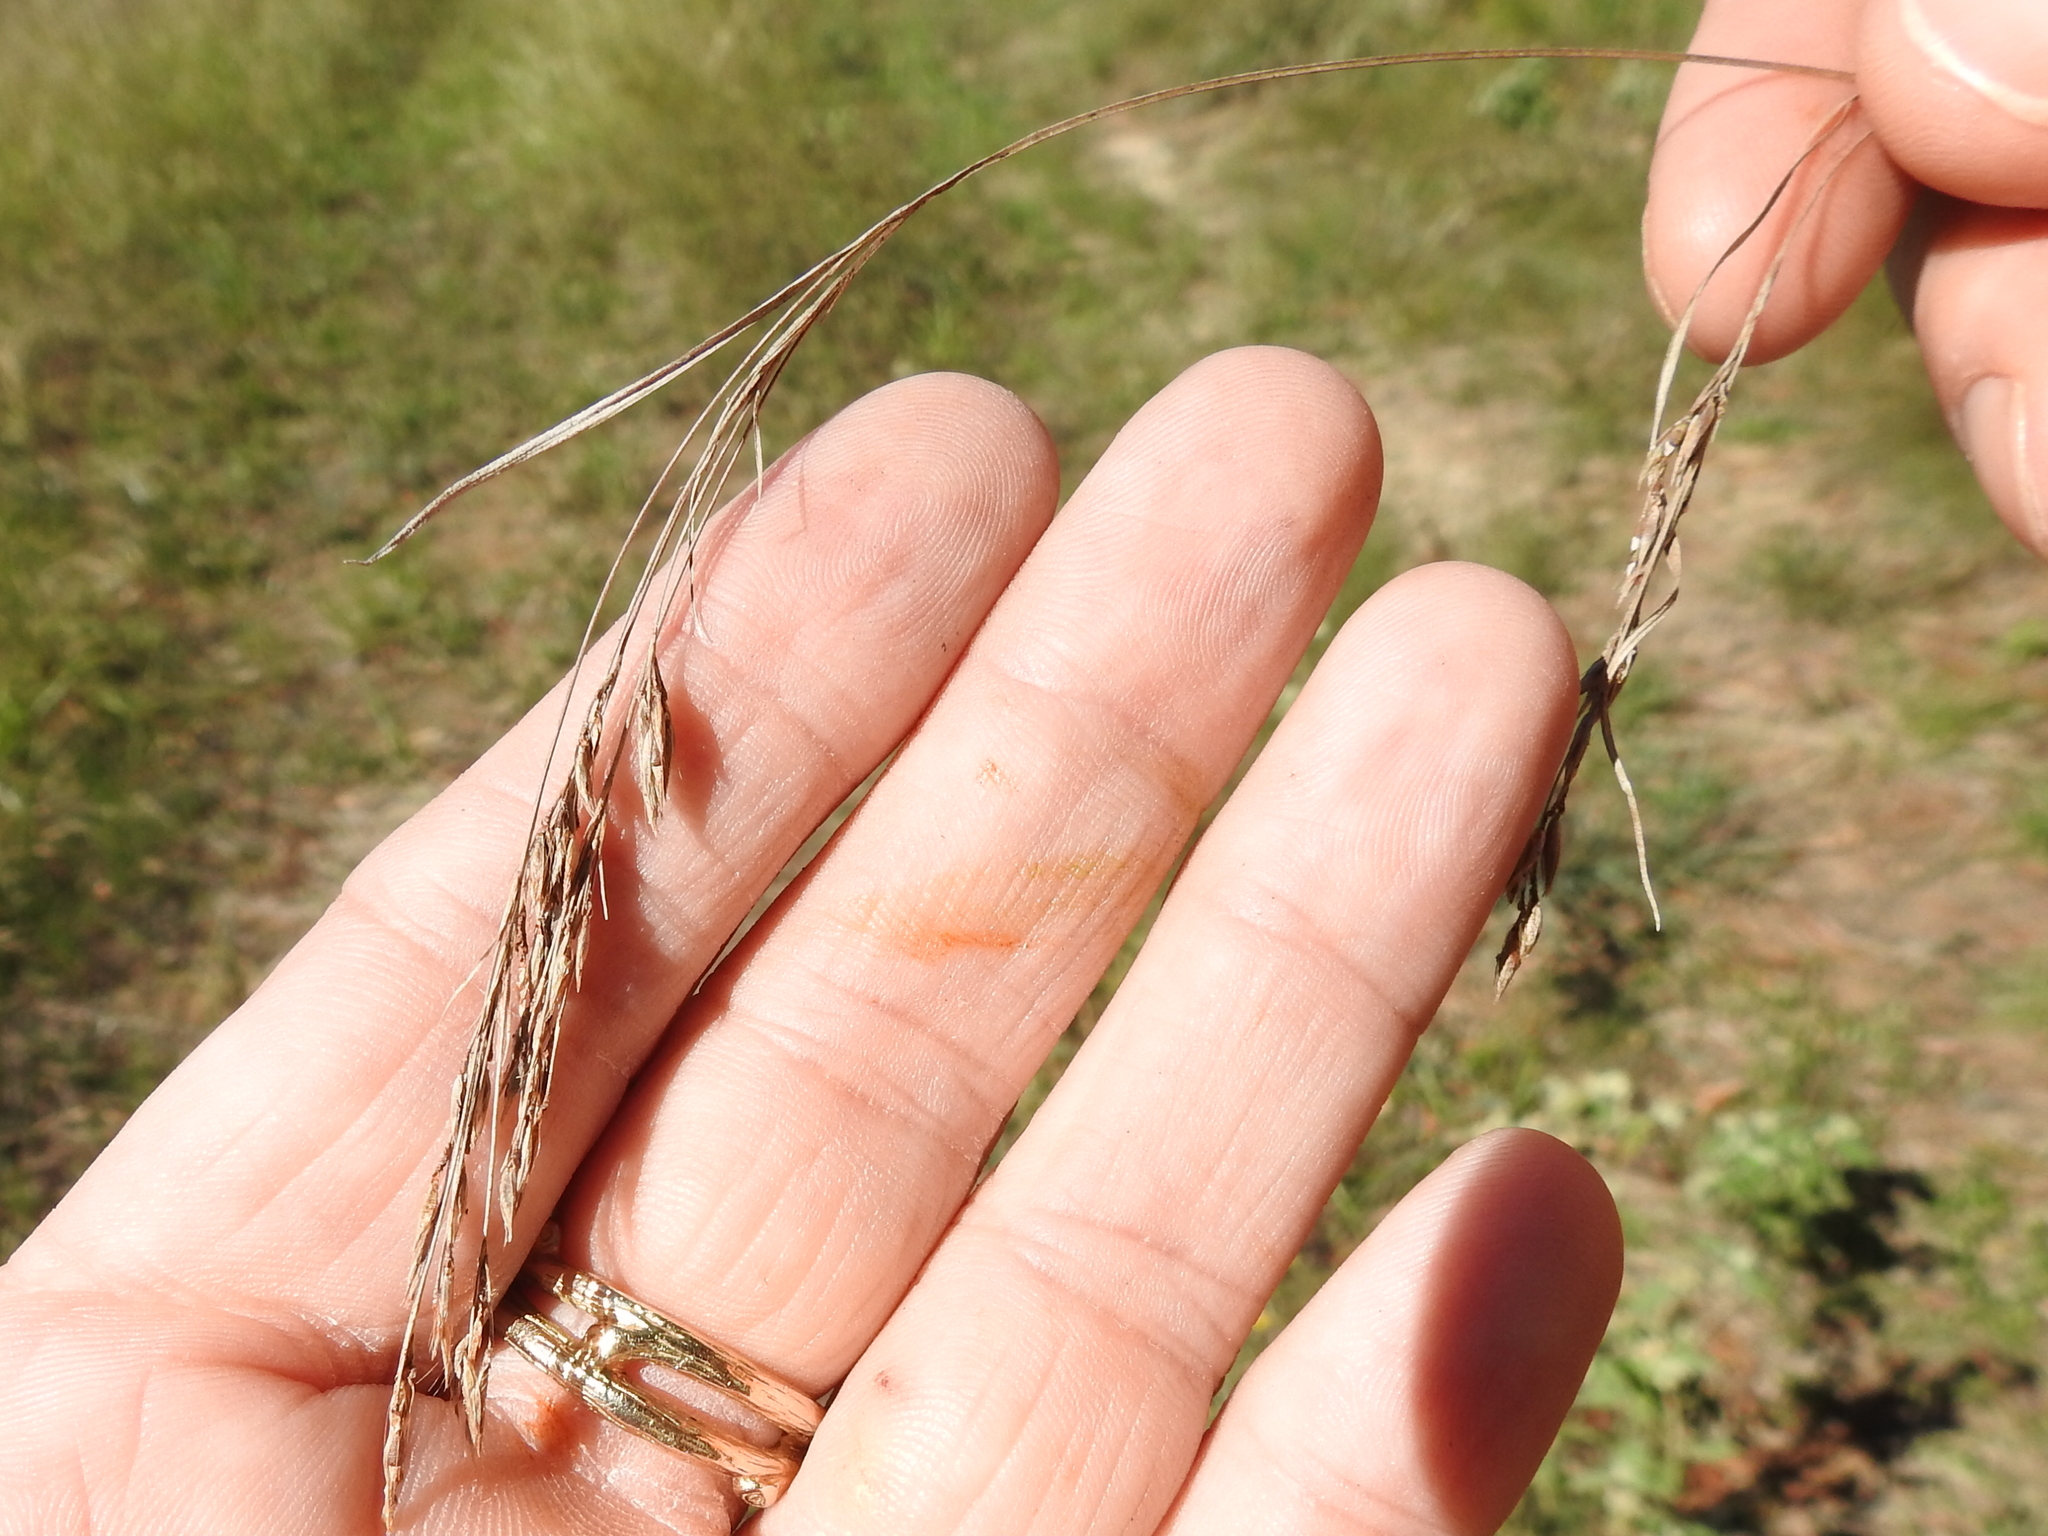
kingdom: Plantae
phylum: Tracheophyta
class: Liliopsida
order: Poales
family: Cyperaceae
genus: Rhynchospora
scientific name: Rhynchospora inexpansa
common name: Nodding beaksedge
